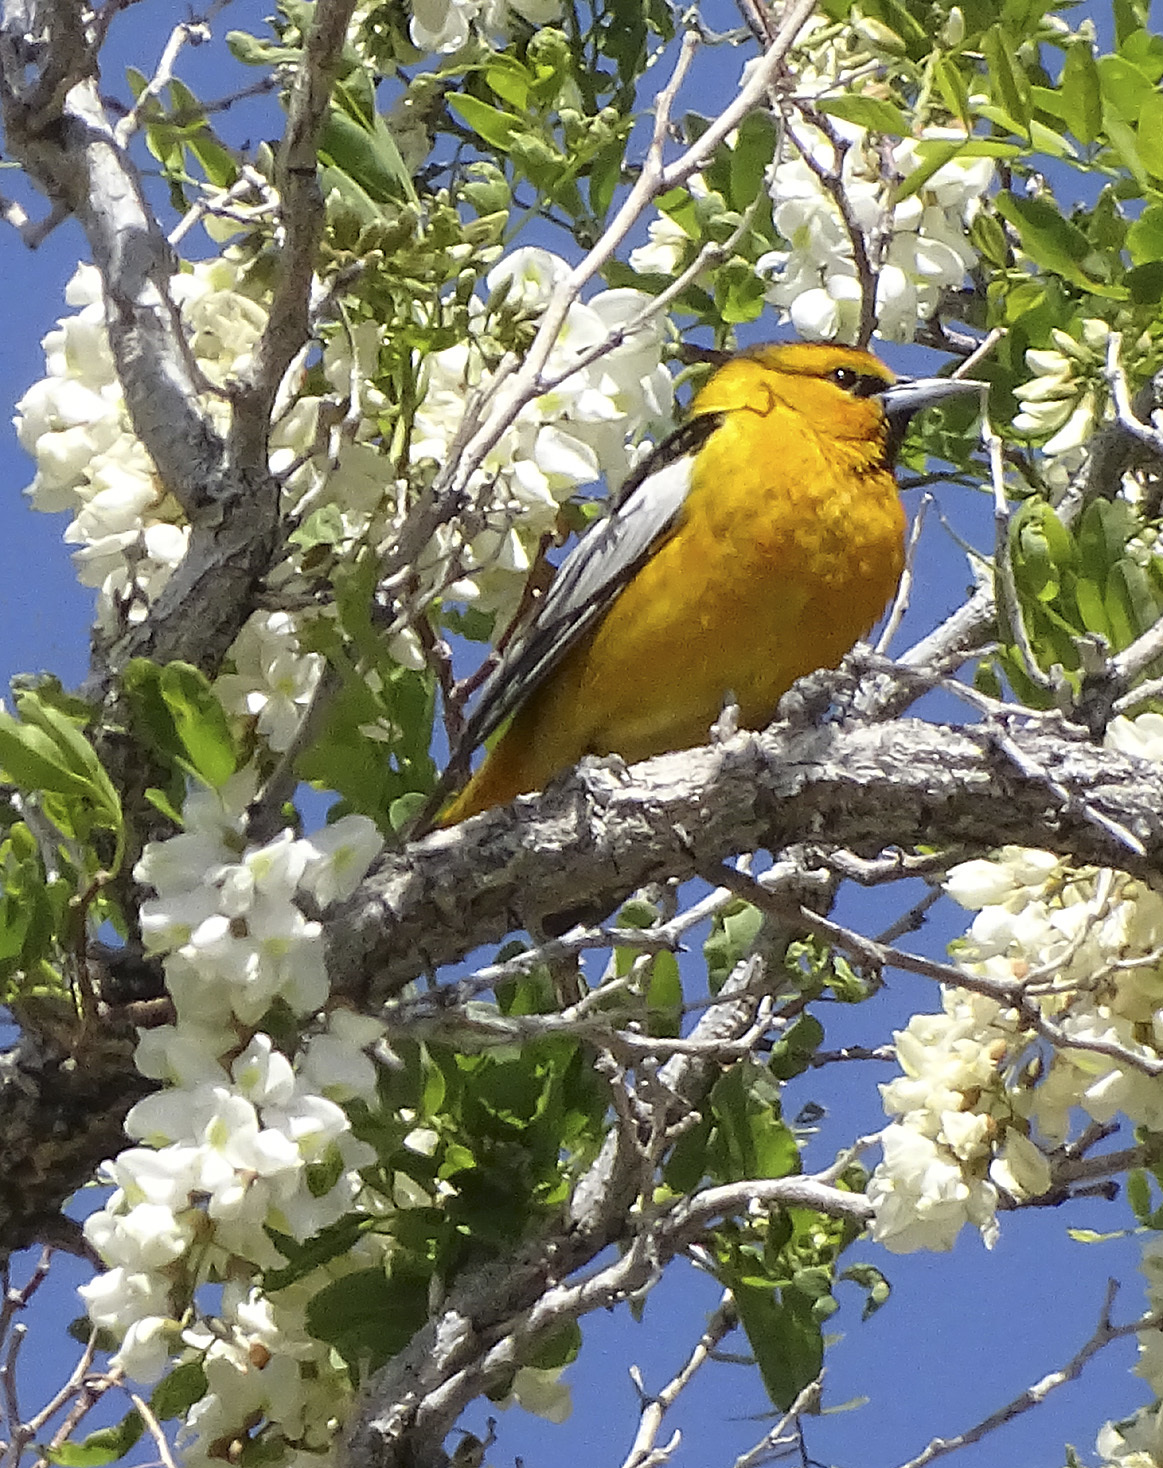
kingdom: Animalia
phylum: Chordata
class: Aves
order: Passeriformes
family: Icteridae
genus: Icterus
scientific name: Icterus bullockii
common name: Bullock's oriole
